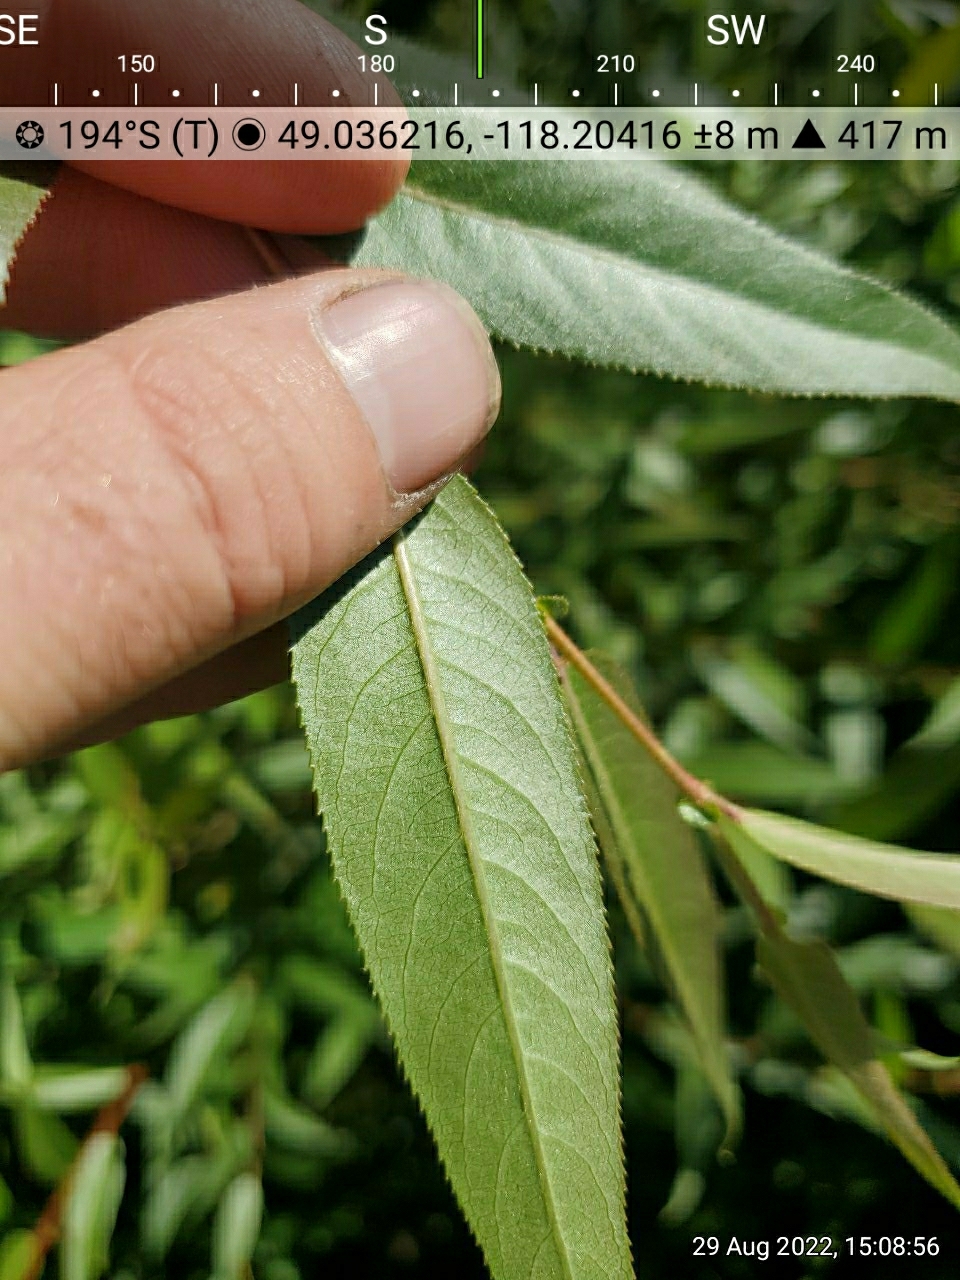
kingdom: Plantae
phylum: Tracheophyta
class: Magnoliopsida
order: Malpighiales
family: Salicaceae
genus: Salix
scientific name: Salix lucida
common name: Shining willow
